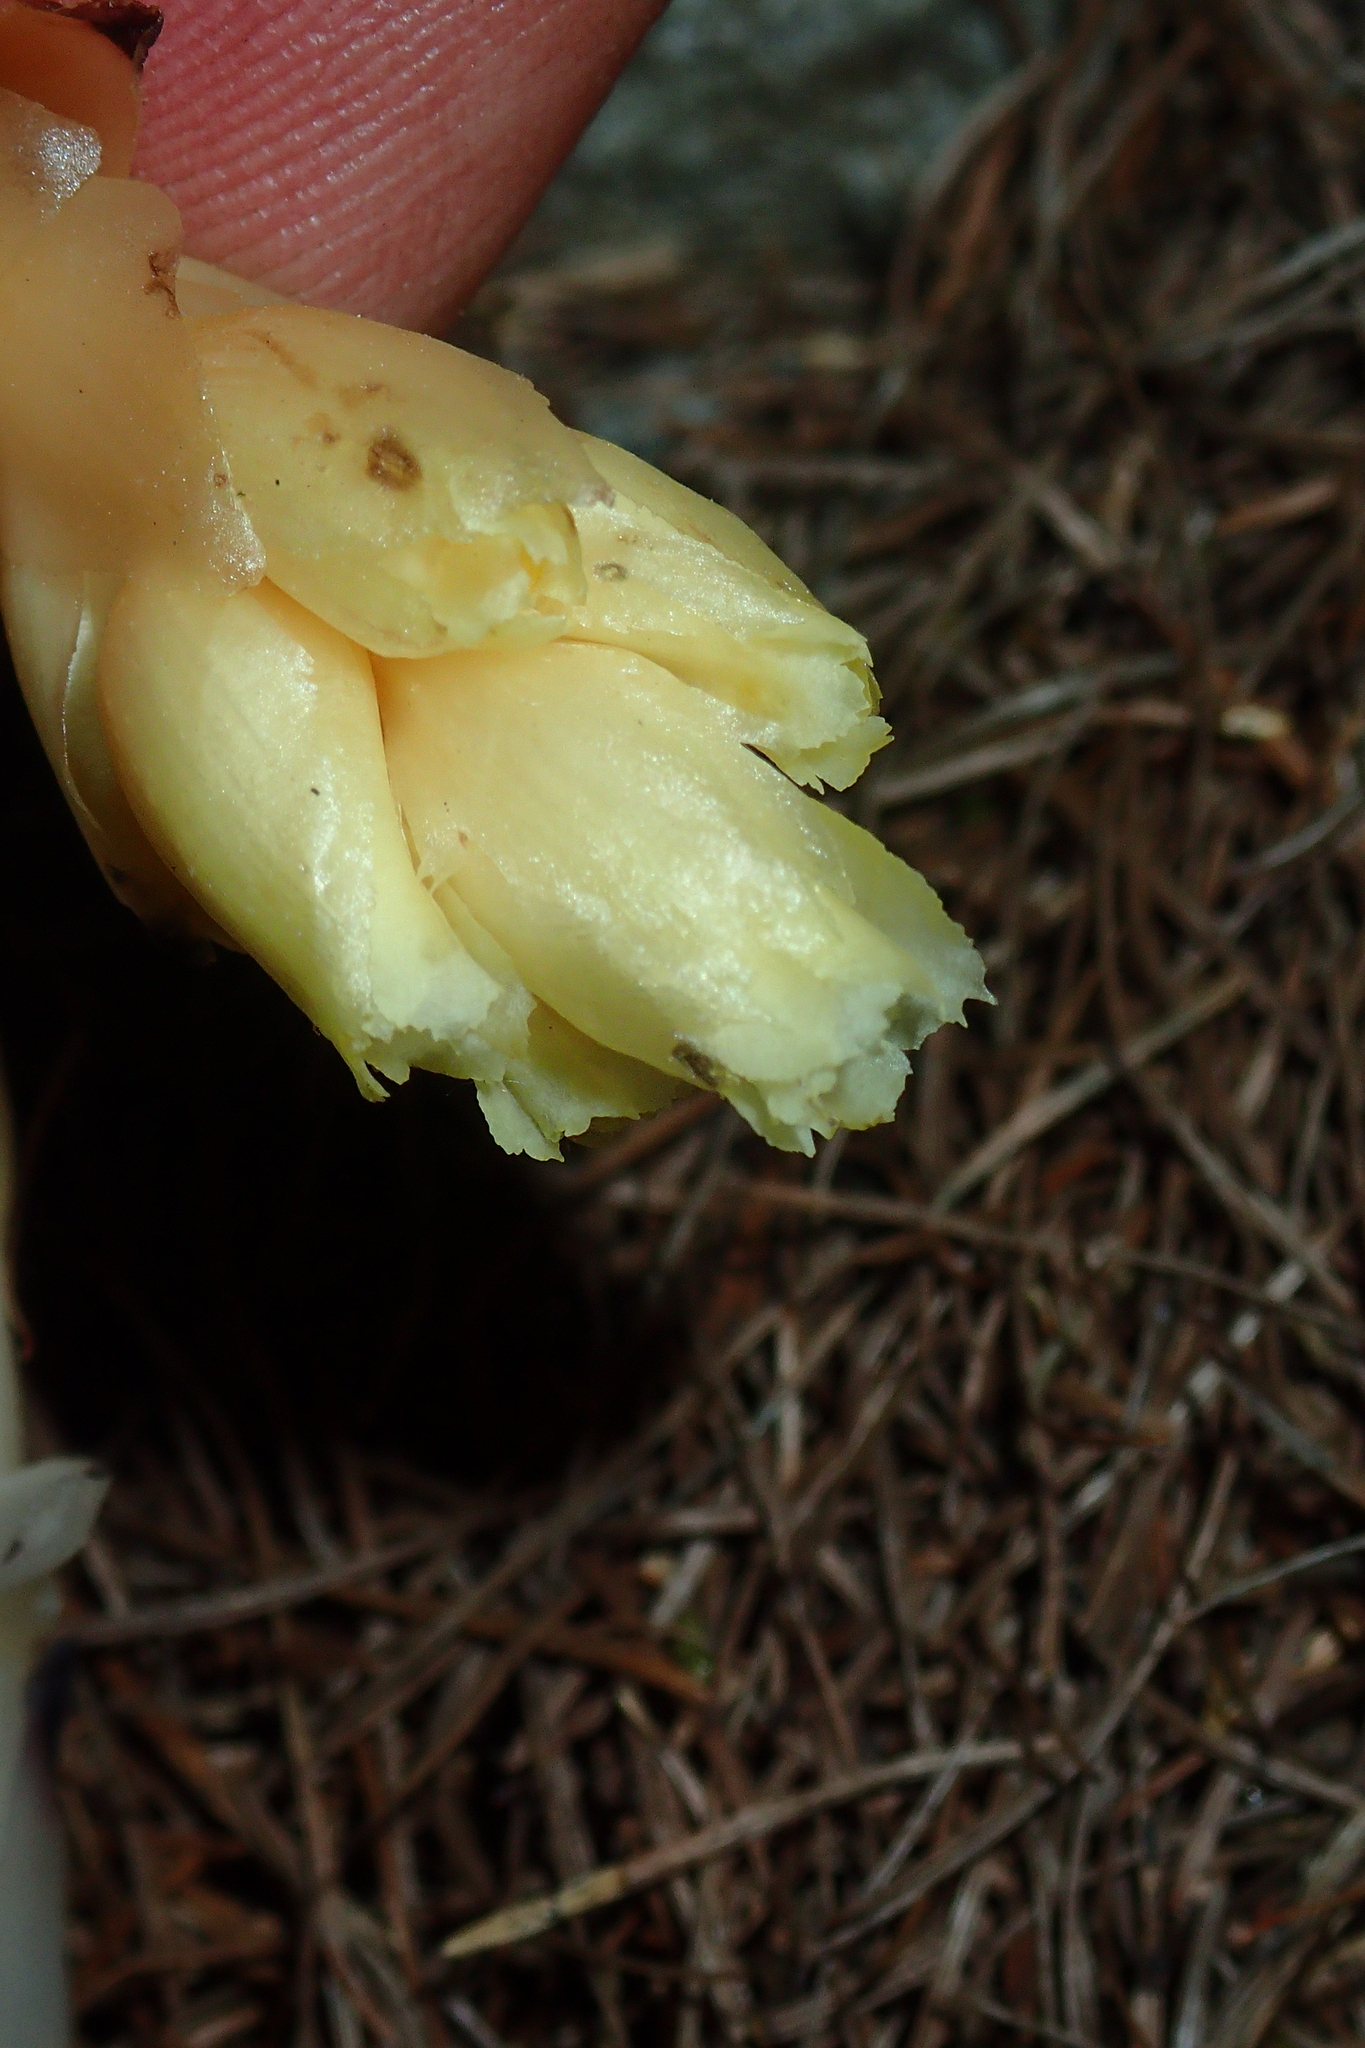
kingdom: Plantae
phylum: Tracheophyta
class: Magnoliopsida
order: Ericales
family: Ericaceae
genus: Hypopitys
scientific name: Hypopitys monotropa
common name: Yellow bird's-nest
